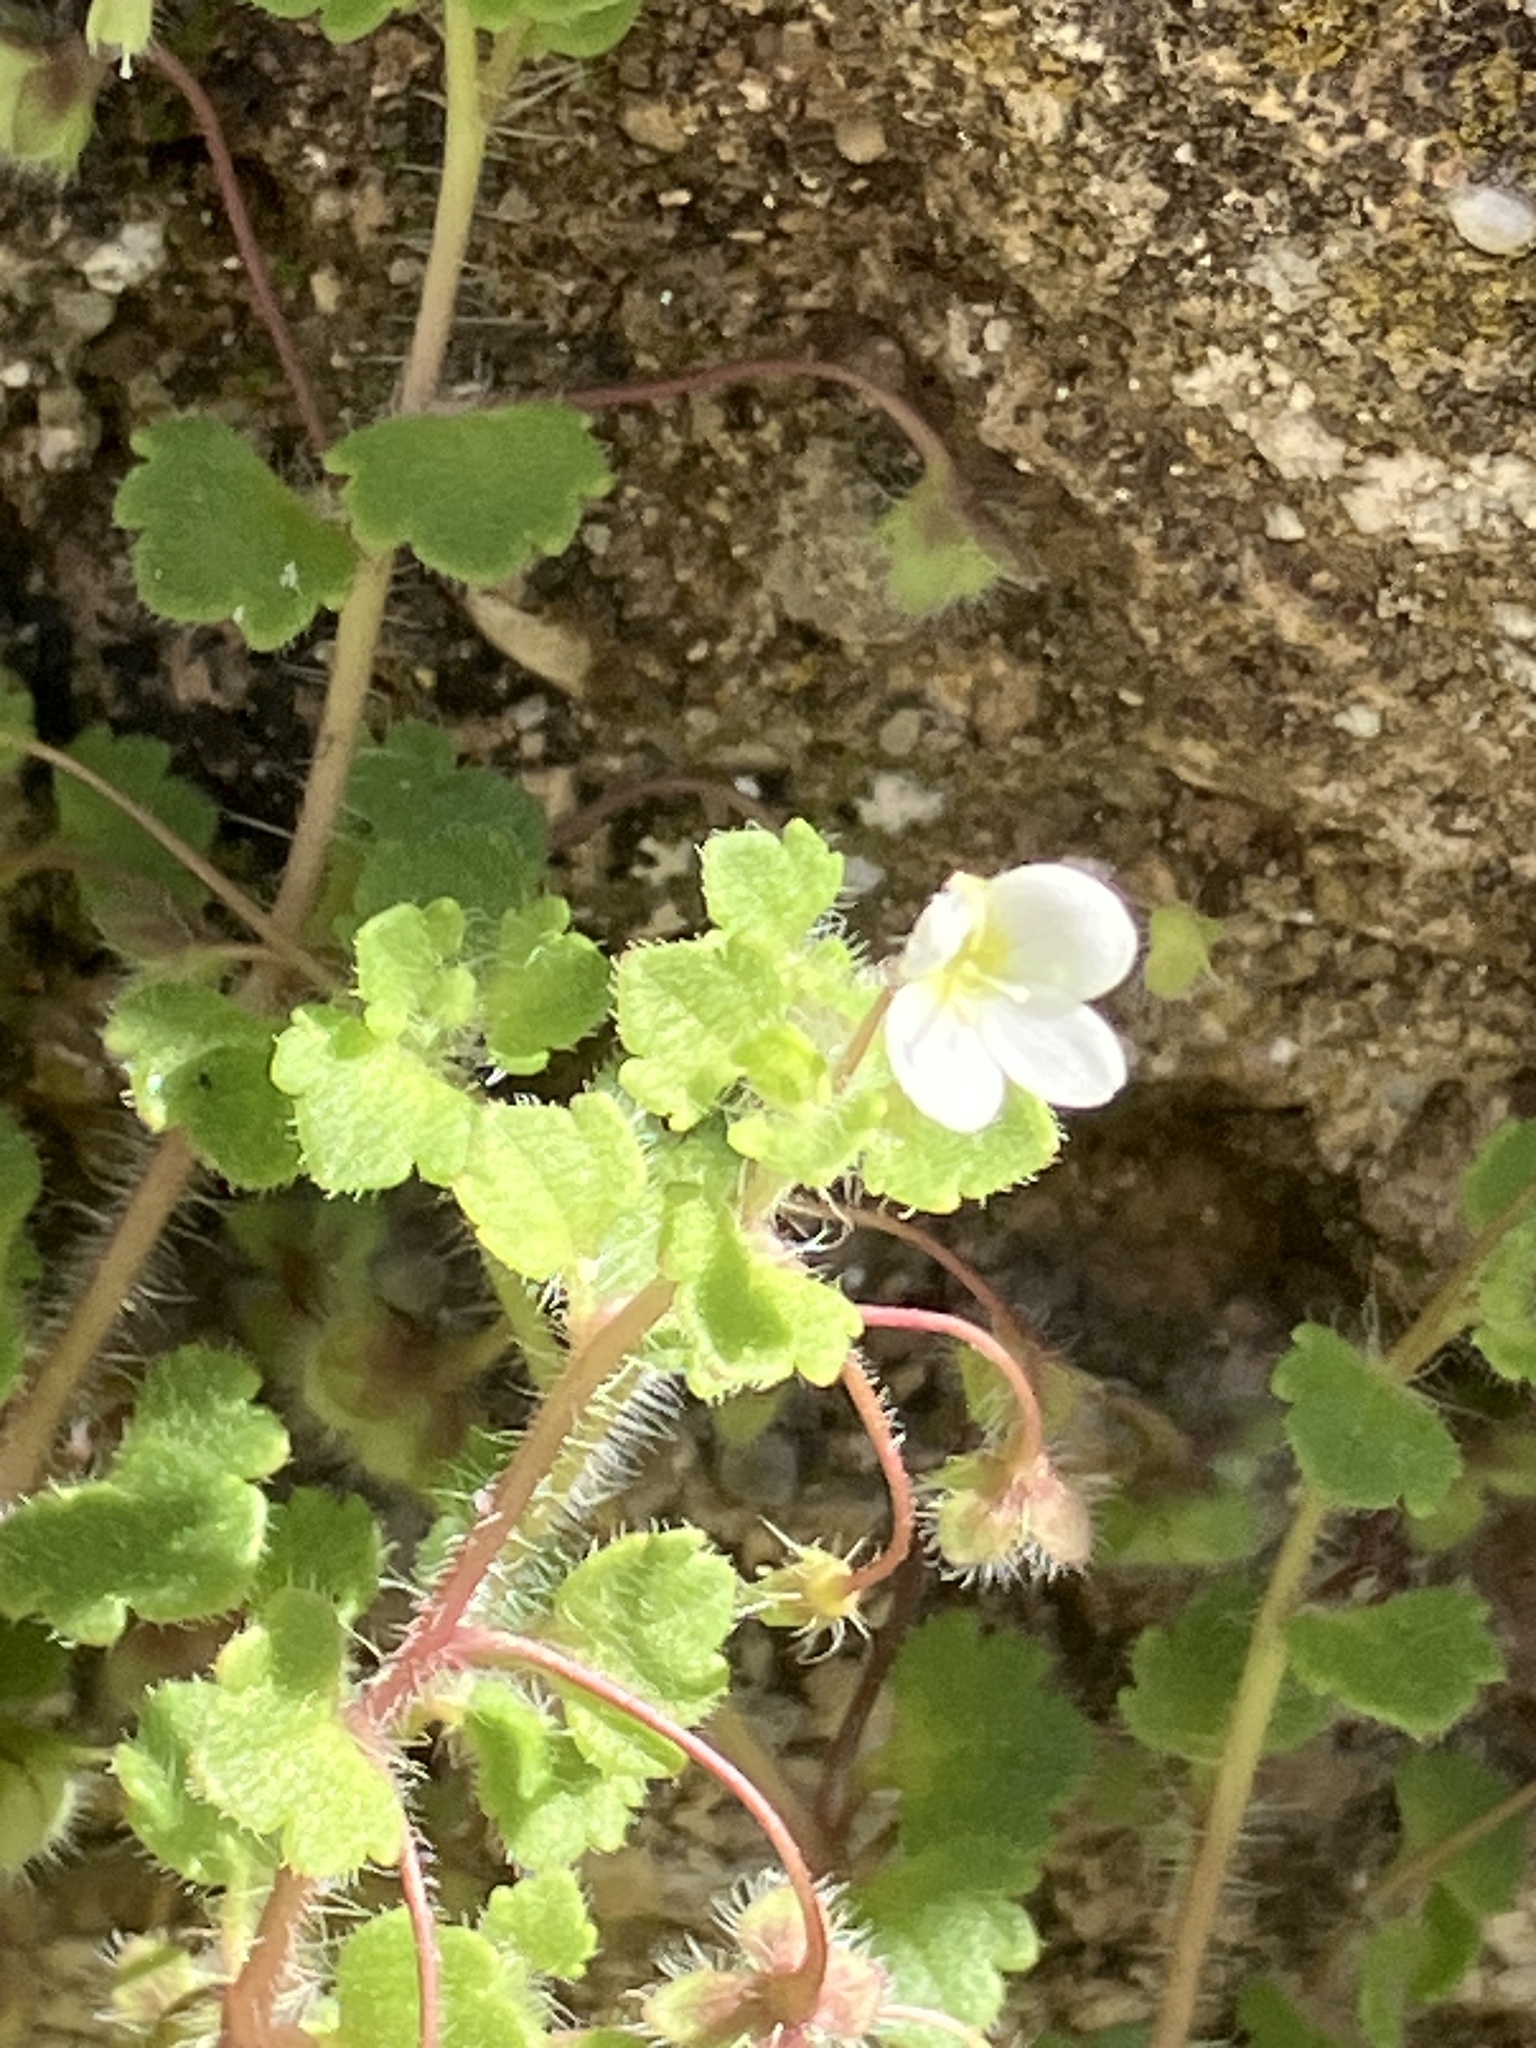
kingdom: Plantae
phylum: Tracheophyta
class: Magnoliopsida
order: Lamiales
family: Plantaginaceae
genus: Veronica
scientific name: Veronica cymbalaria
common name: Pale speedwell
